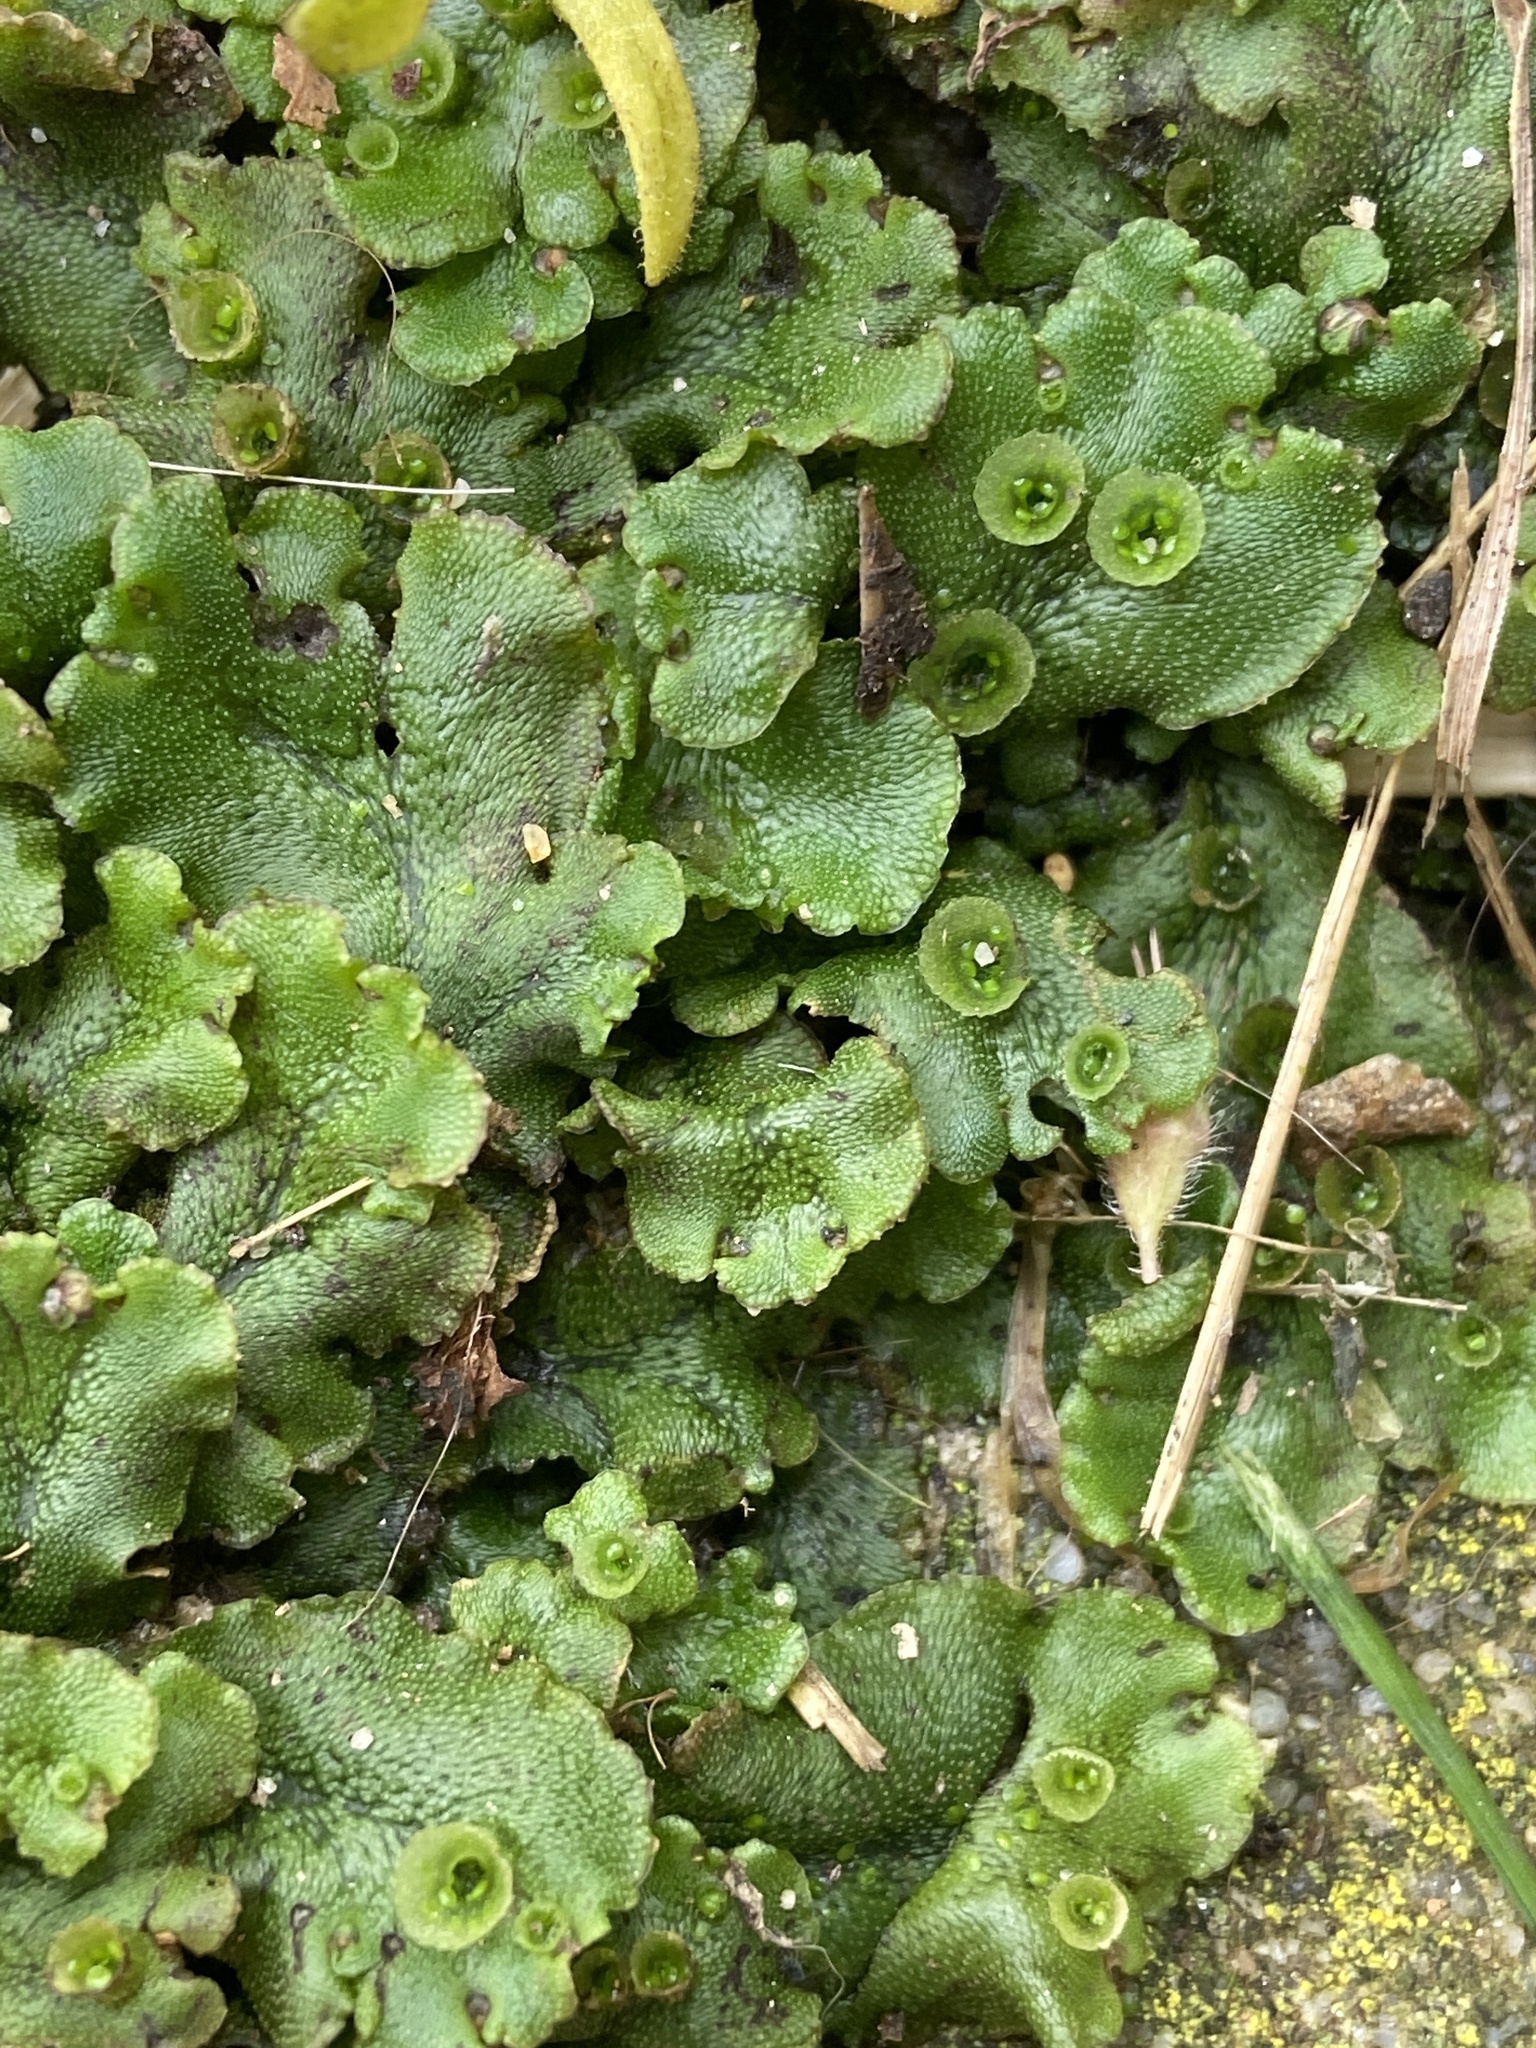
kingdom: Plantae
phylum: Marchantiophyta
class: Marchantiopsida
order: Marchantiales
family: Marchantiaceae
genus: Marchantia
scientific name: Marchantia polymorpha
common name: Common liverwort
